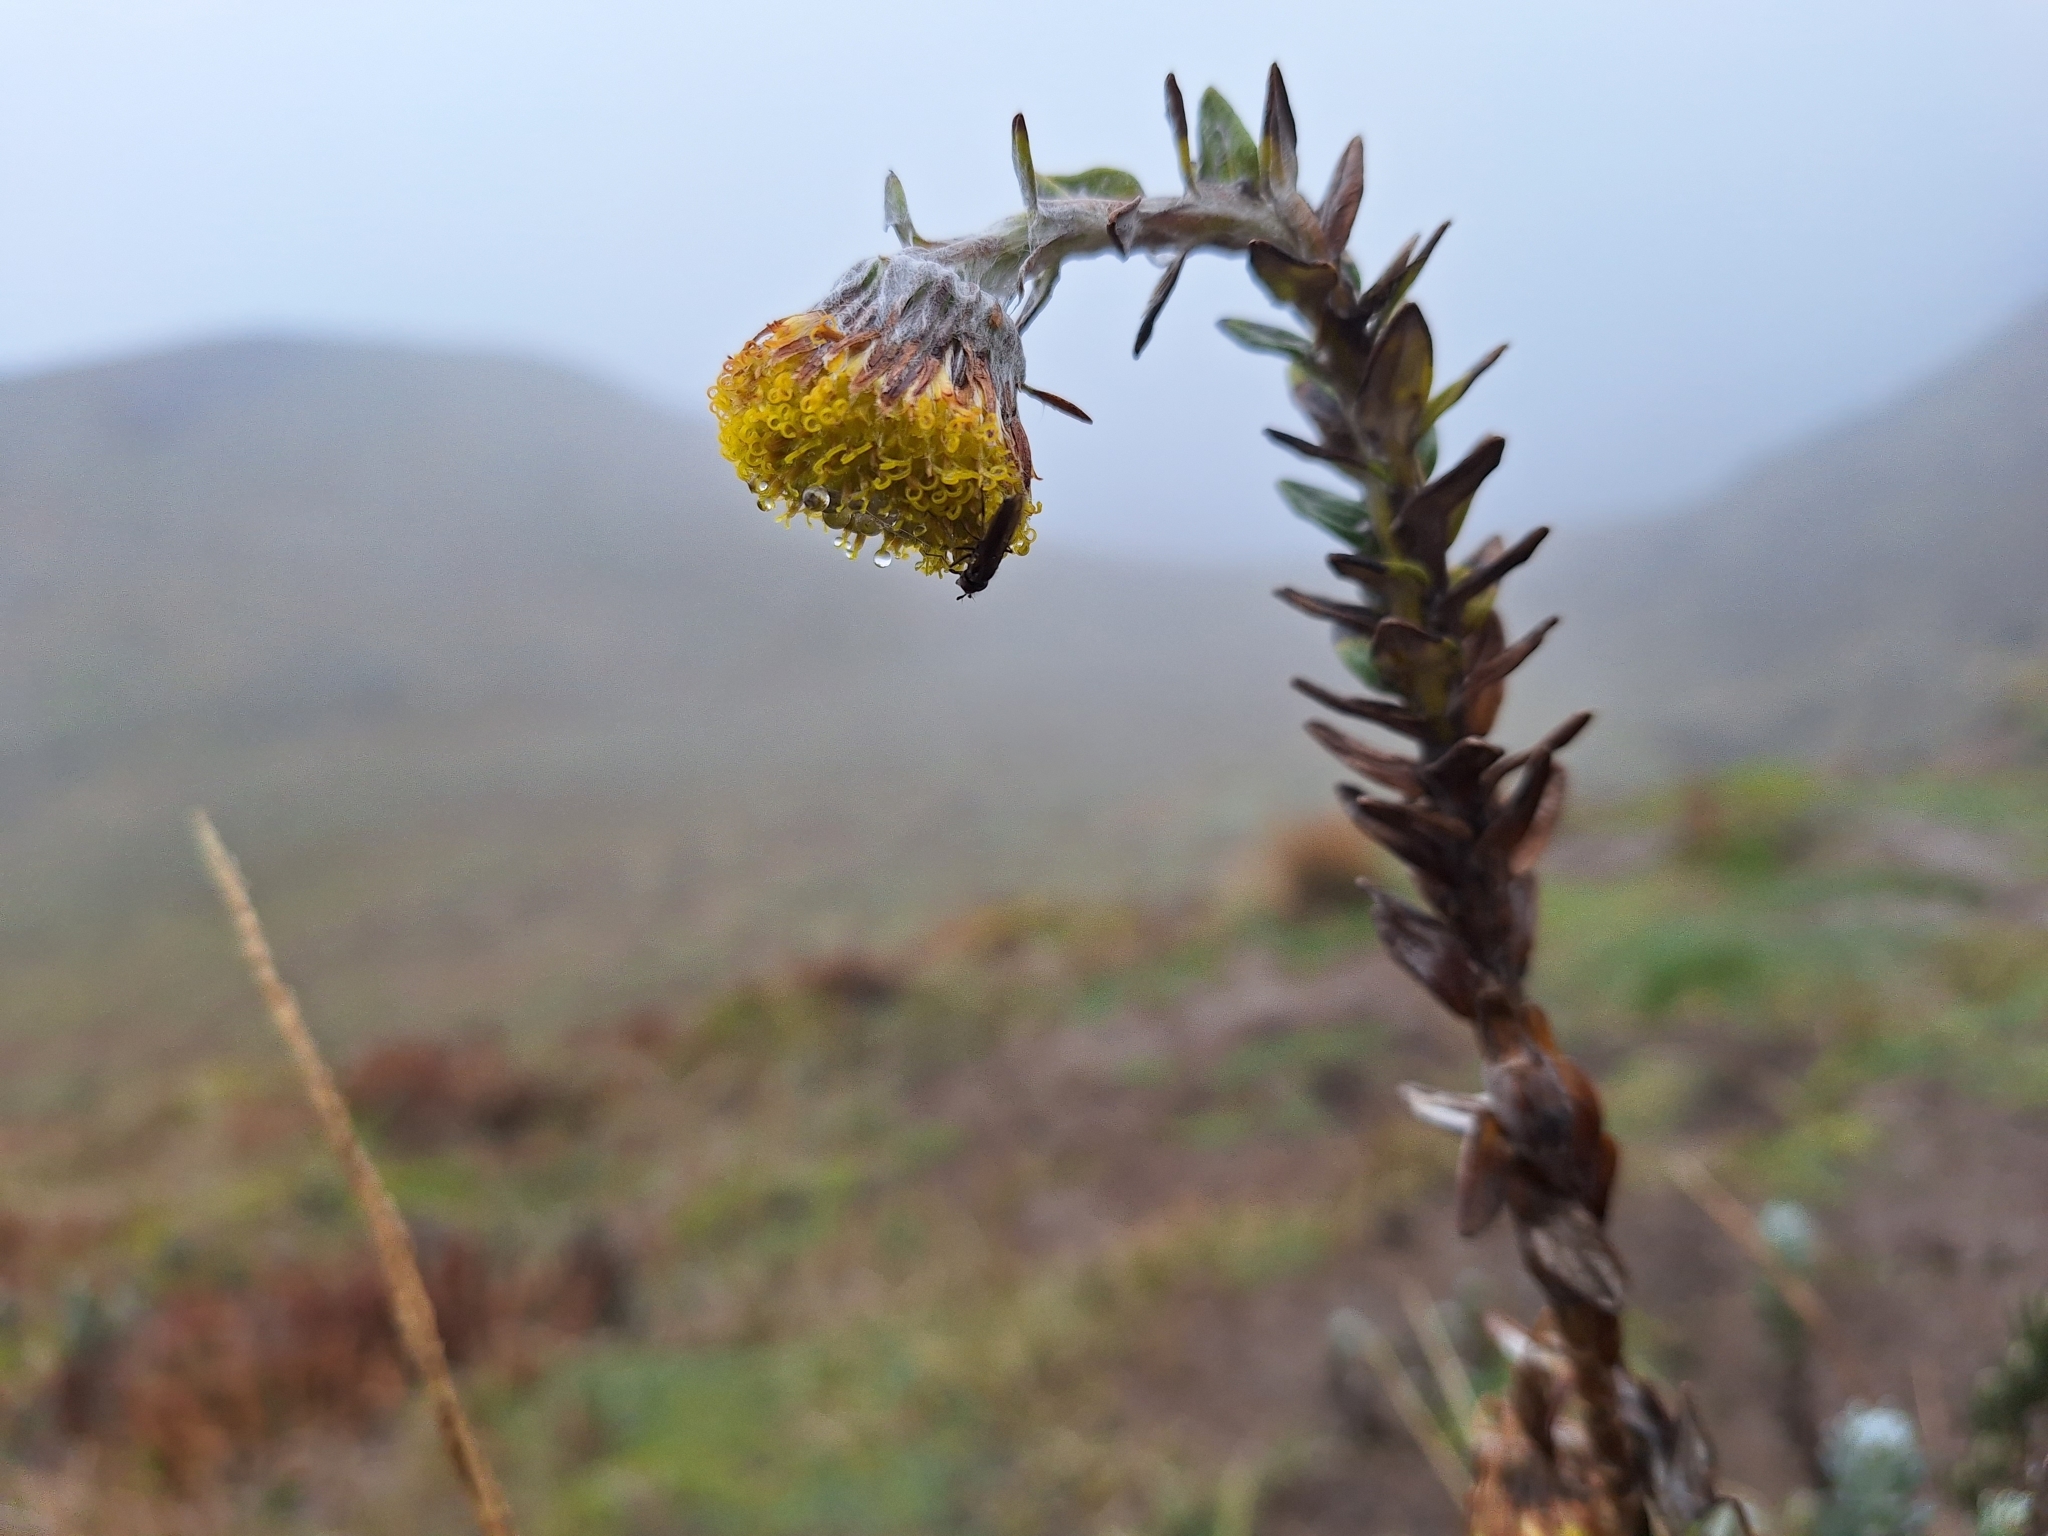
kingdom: Plantae
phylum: Tracheophyta
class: Magnoliopsida
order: Asterales
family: Asteraceae
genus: Lasiocephalus
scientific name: Lasiocephalus ovatus
